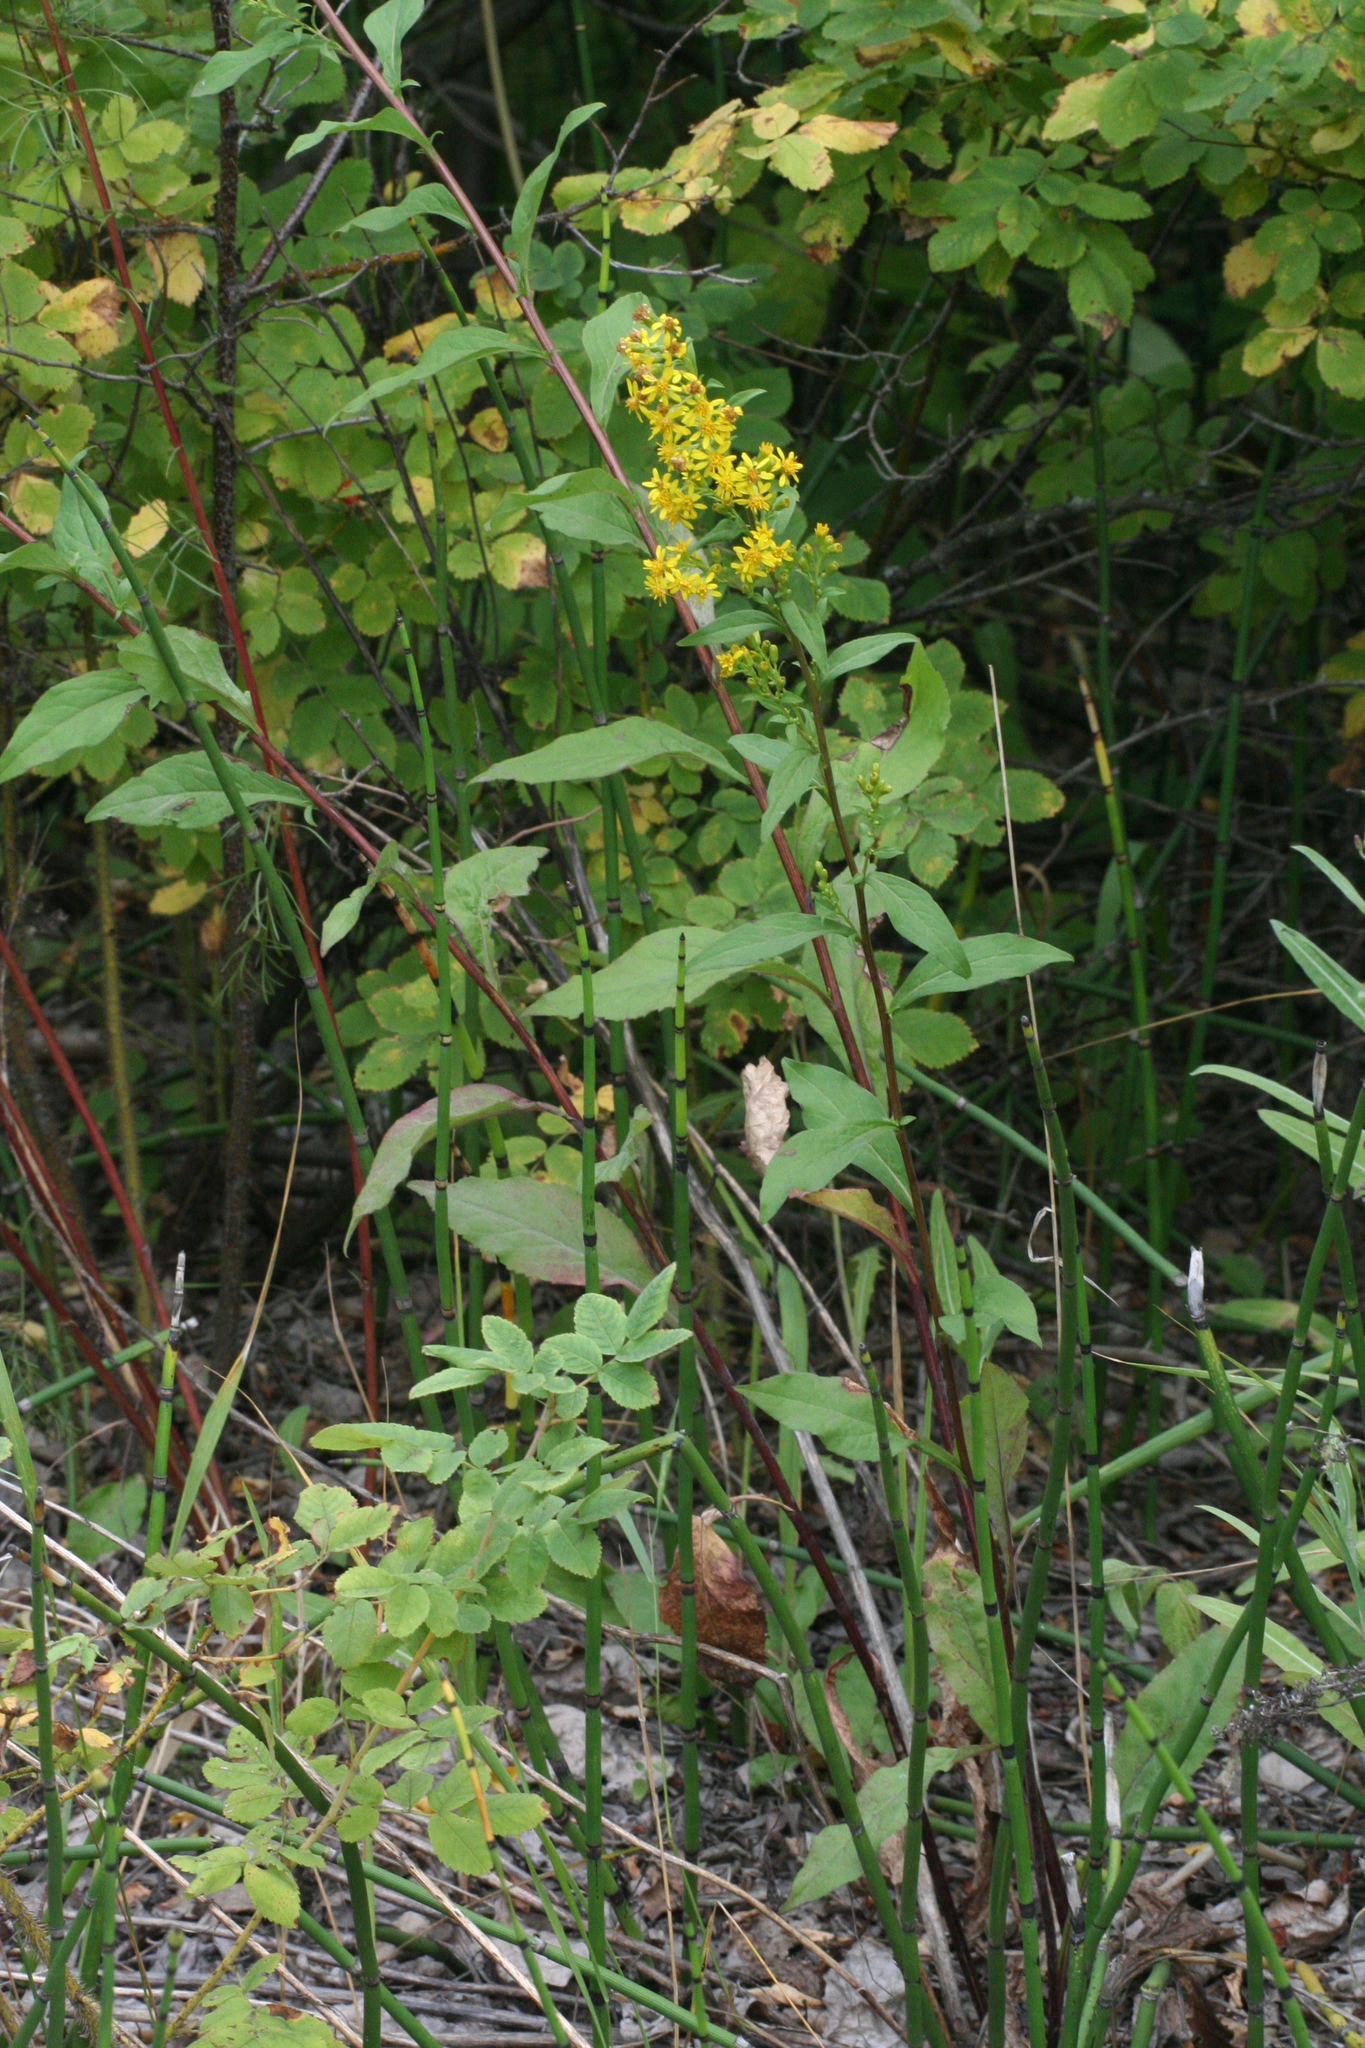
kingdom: Plantae
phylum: Tracheophyta
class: Magnoliopsida
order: Asterales
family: Asteraceae
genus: Solidago
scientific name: Solidago virgaurea
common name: Goldenrod
